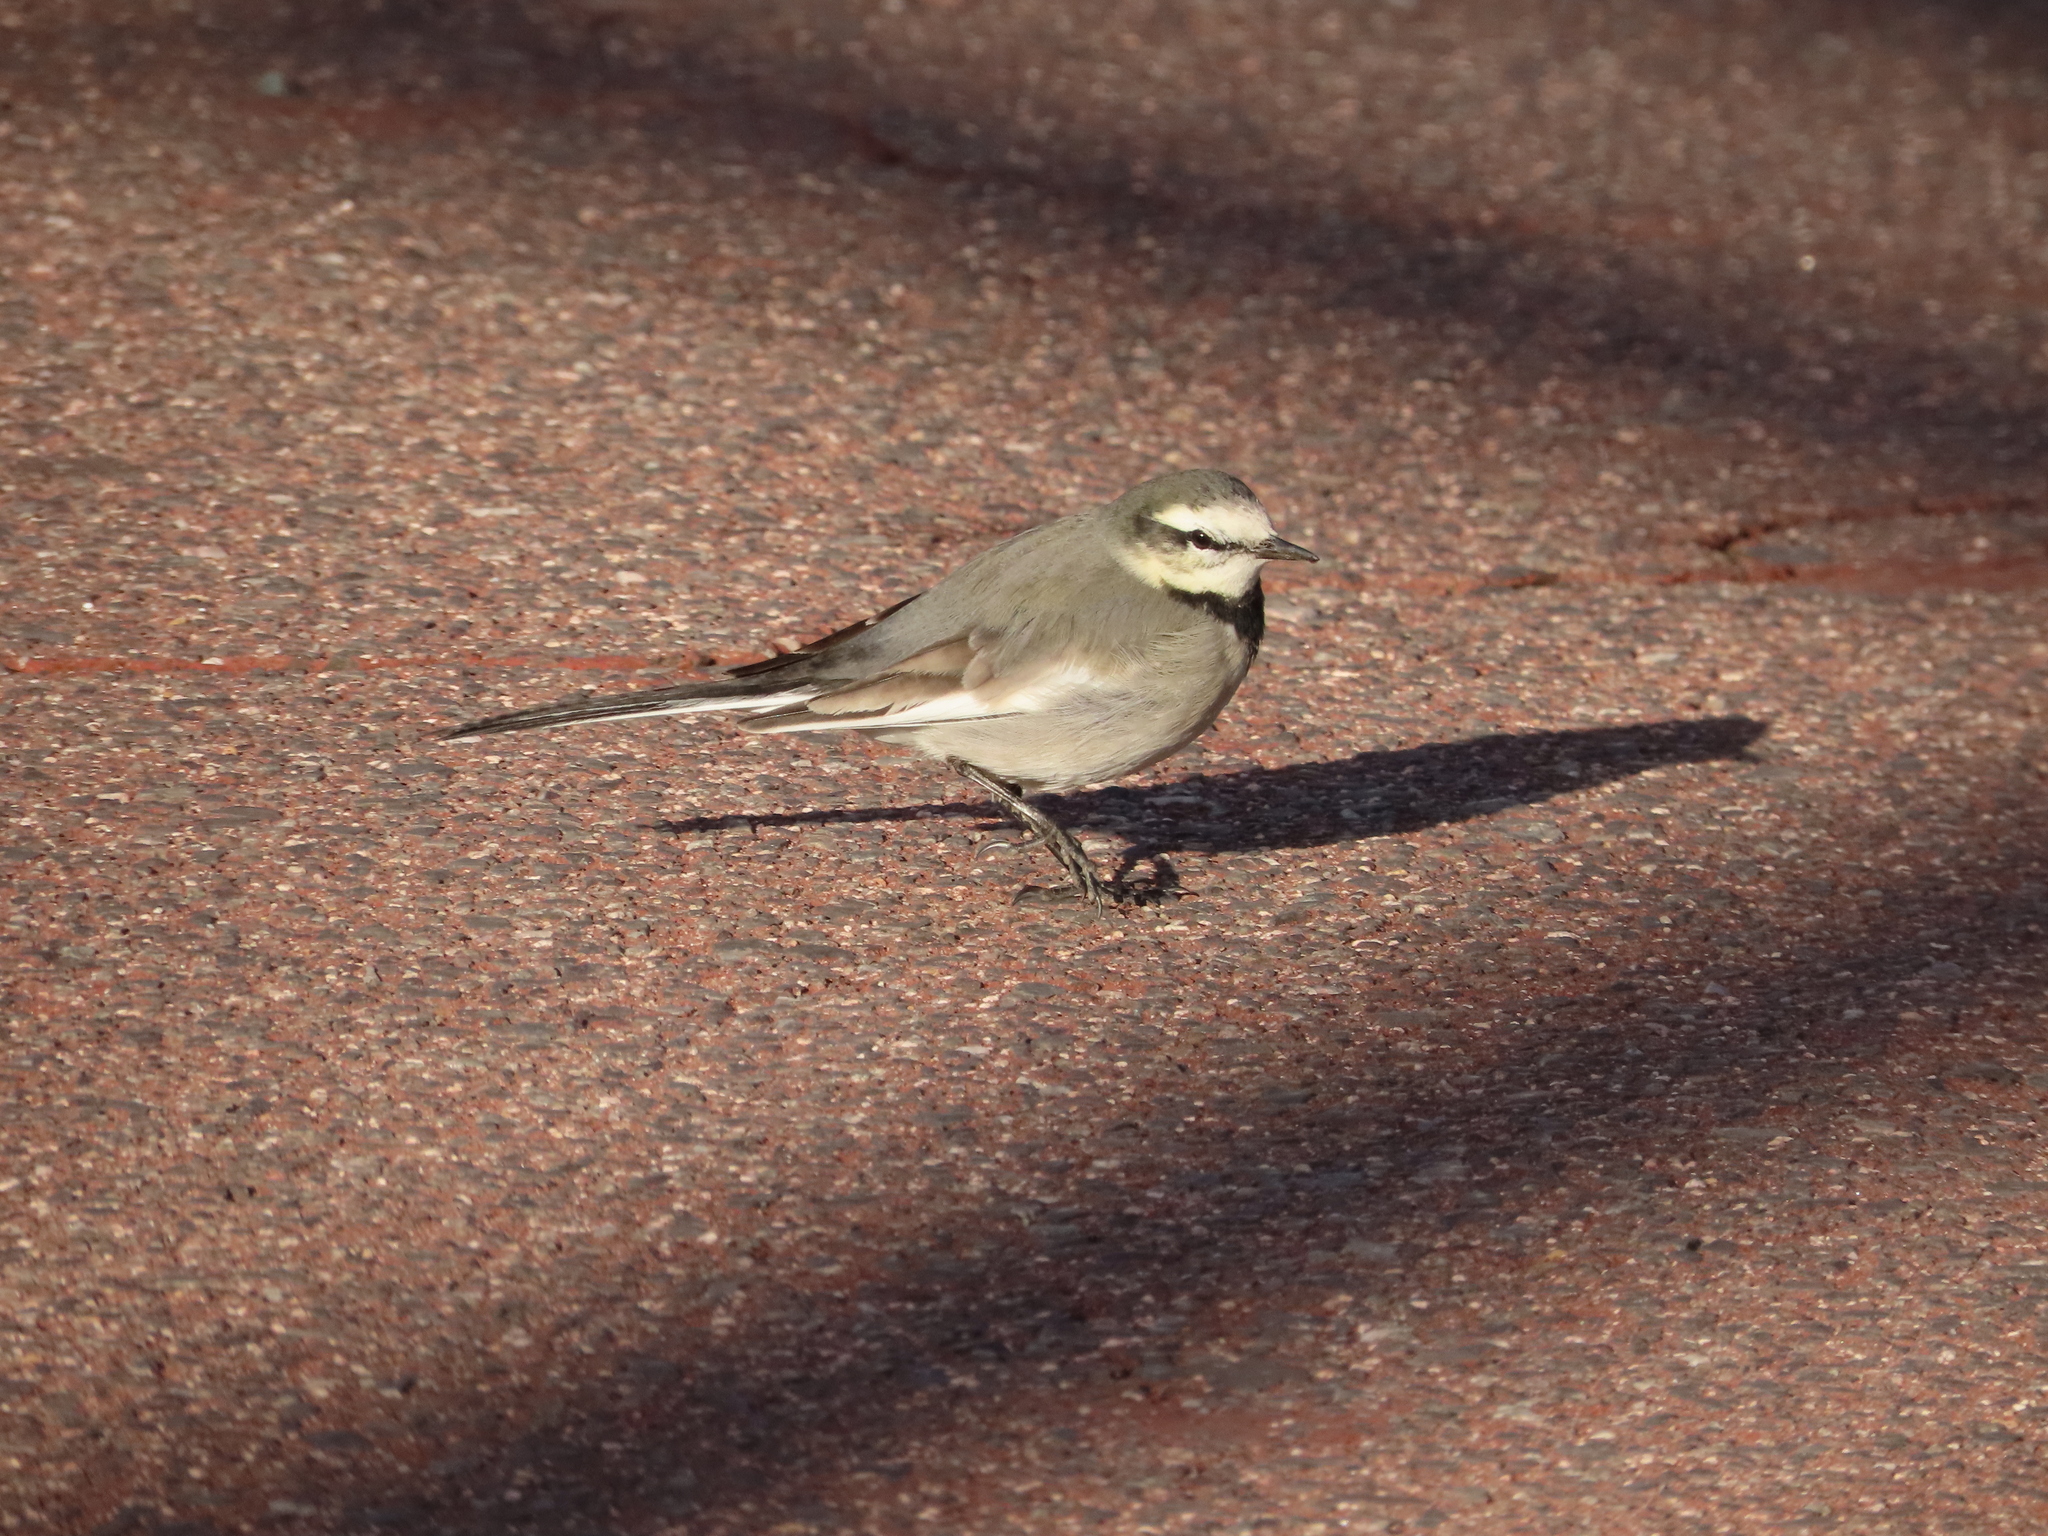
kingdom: Animalia
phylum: Chordata
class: Aves
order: Passeriformes
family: Motacillidae
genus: Motacilla
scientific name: Motacilla alba
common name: White wagtail
